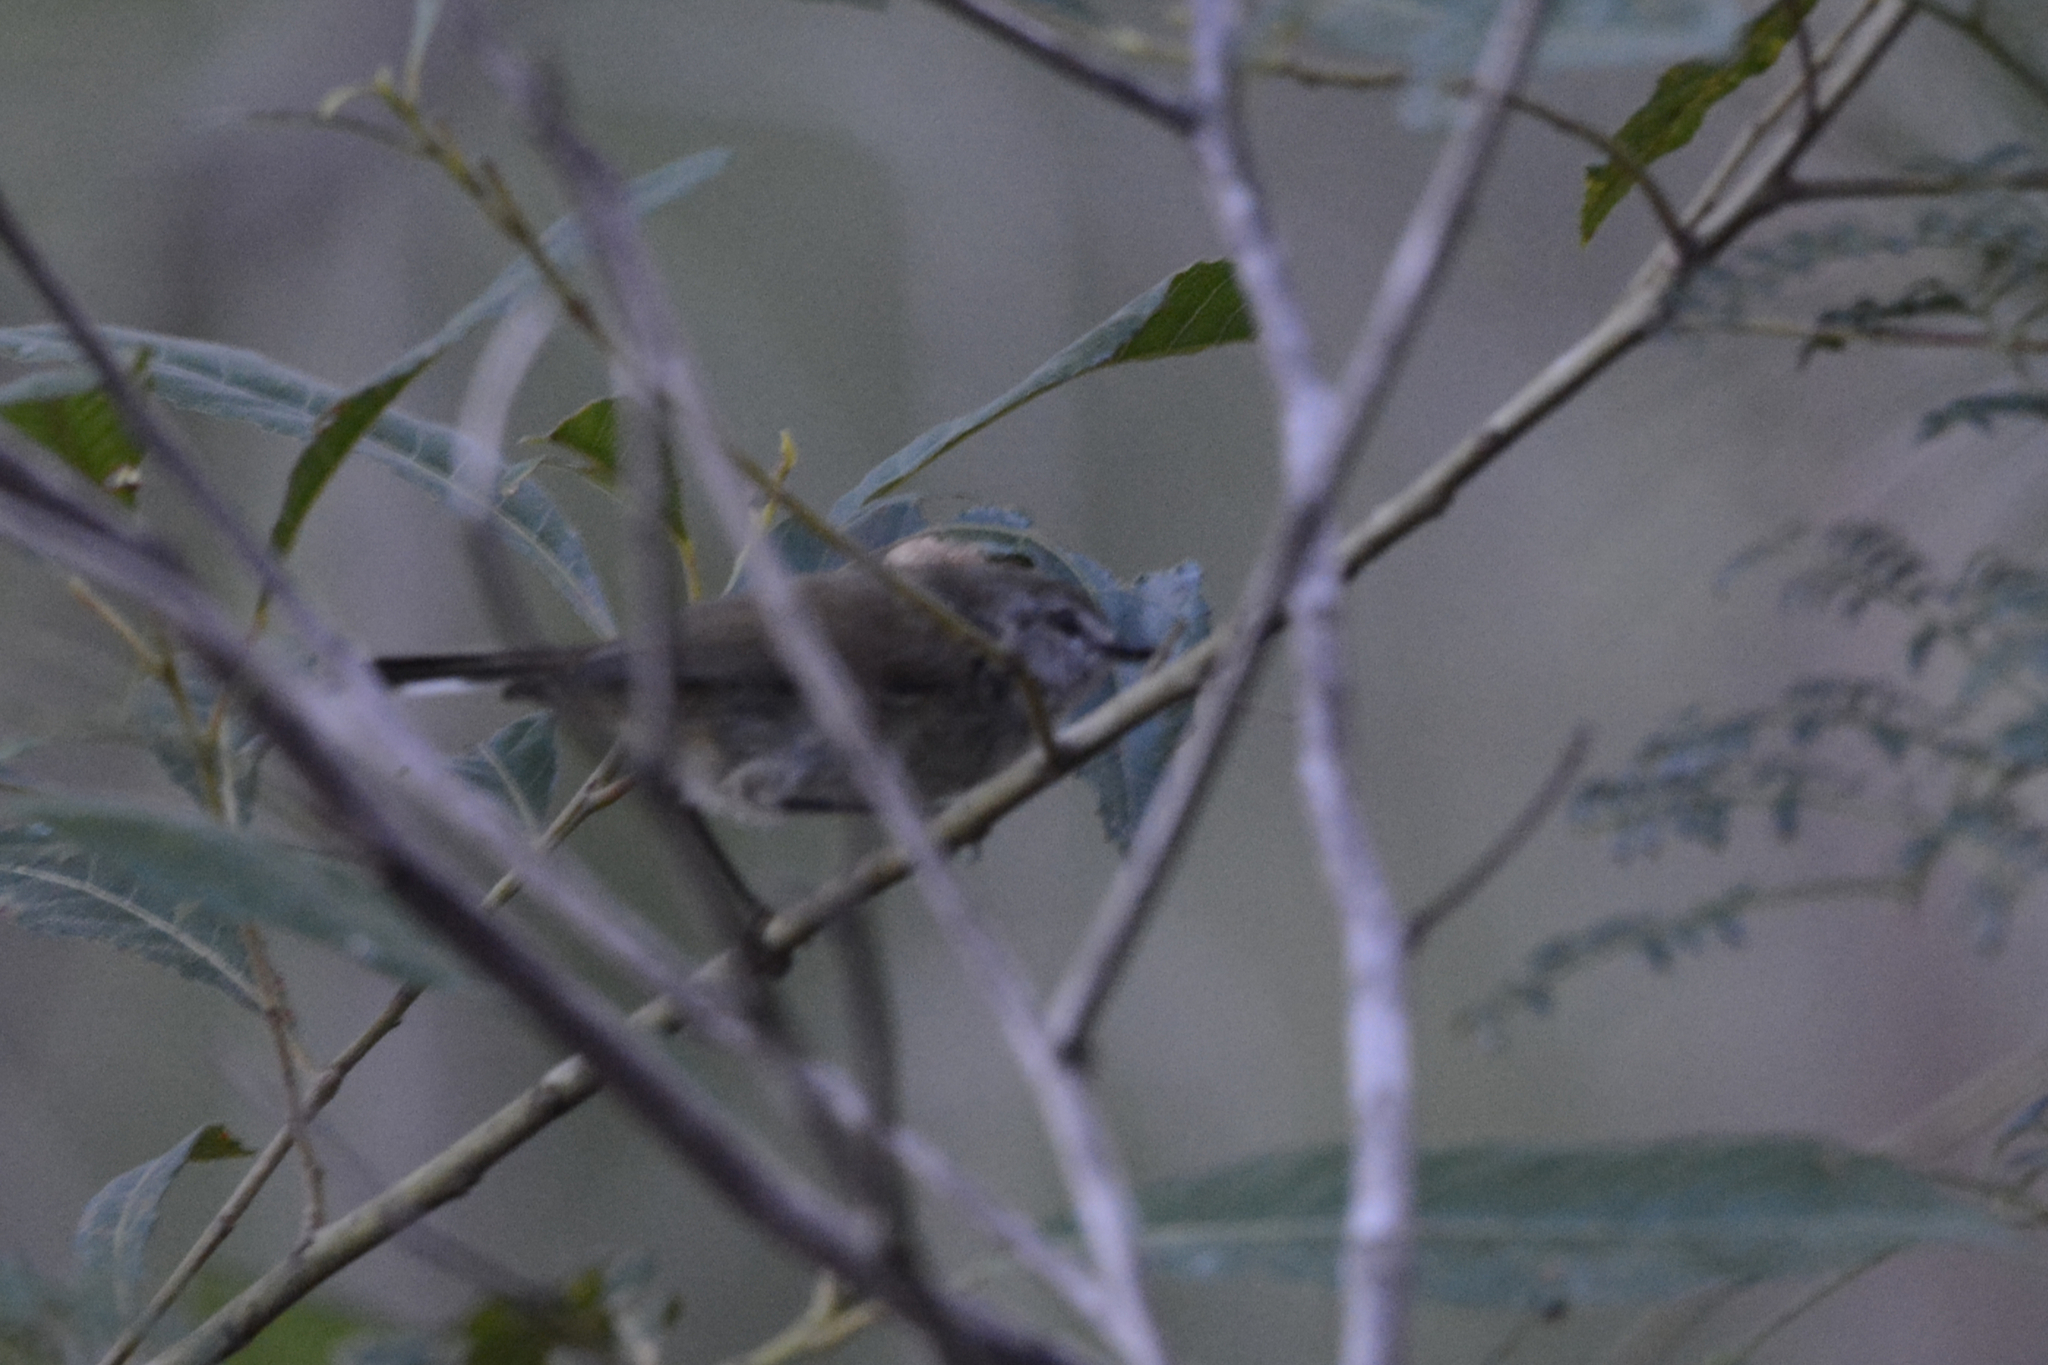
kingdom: Animalia
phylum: Chordata
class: Aves
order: Passeriformes
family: Acanthizidae
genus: Gerygone
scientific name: Gerygone mouki
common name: Brown gerygone
